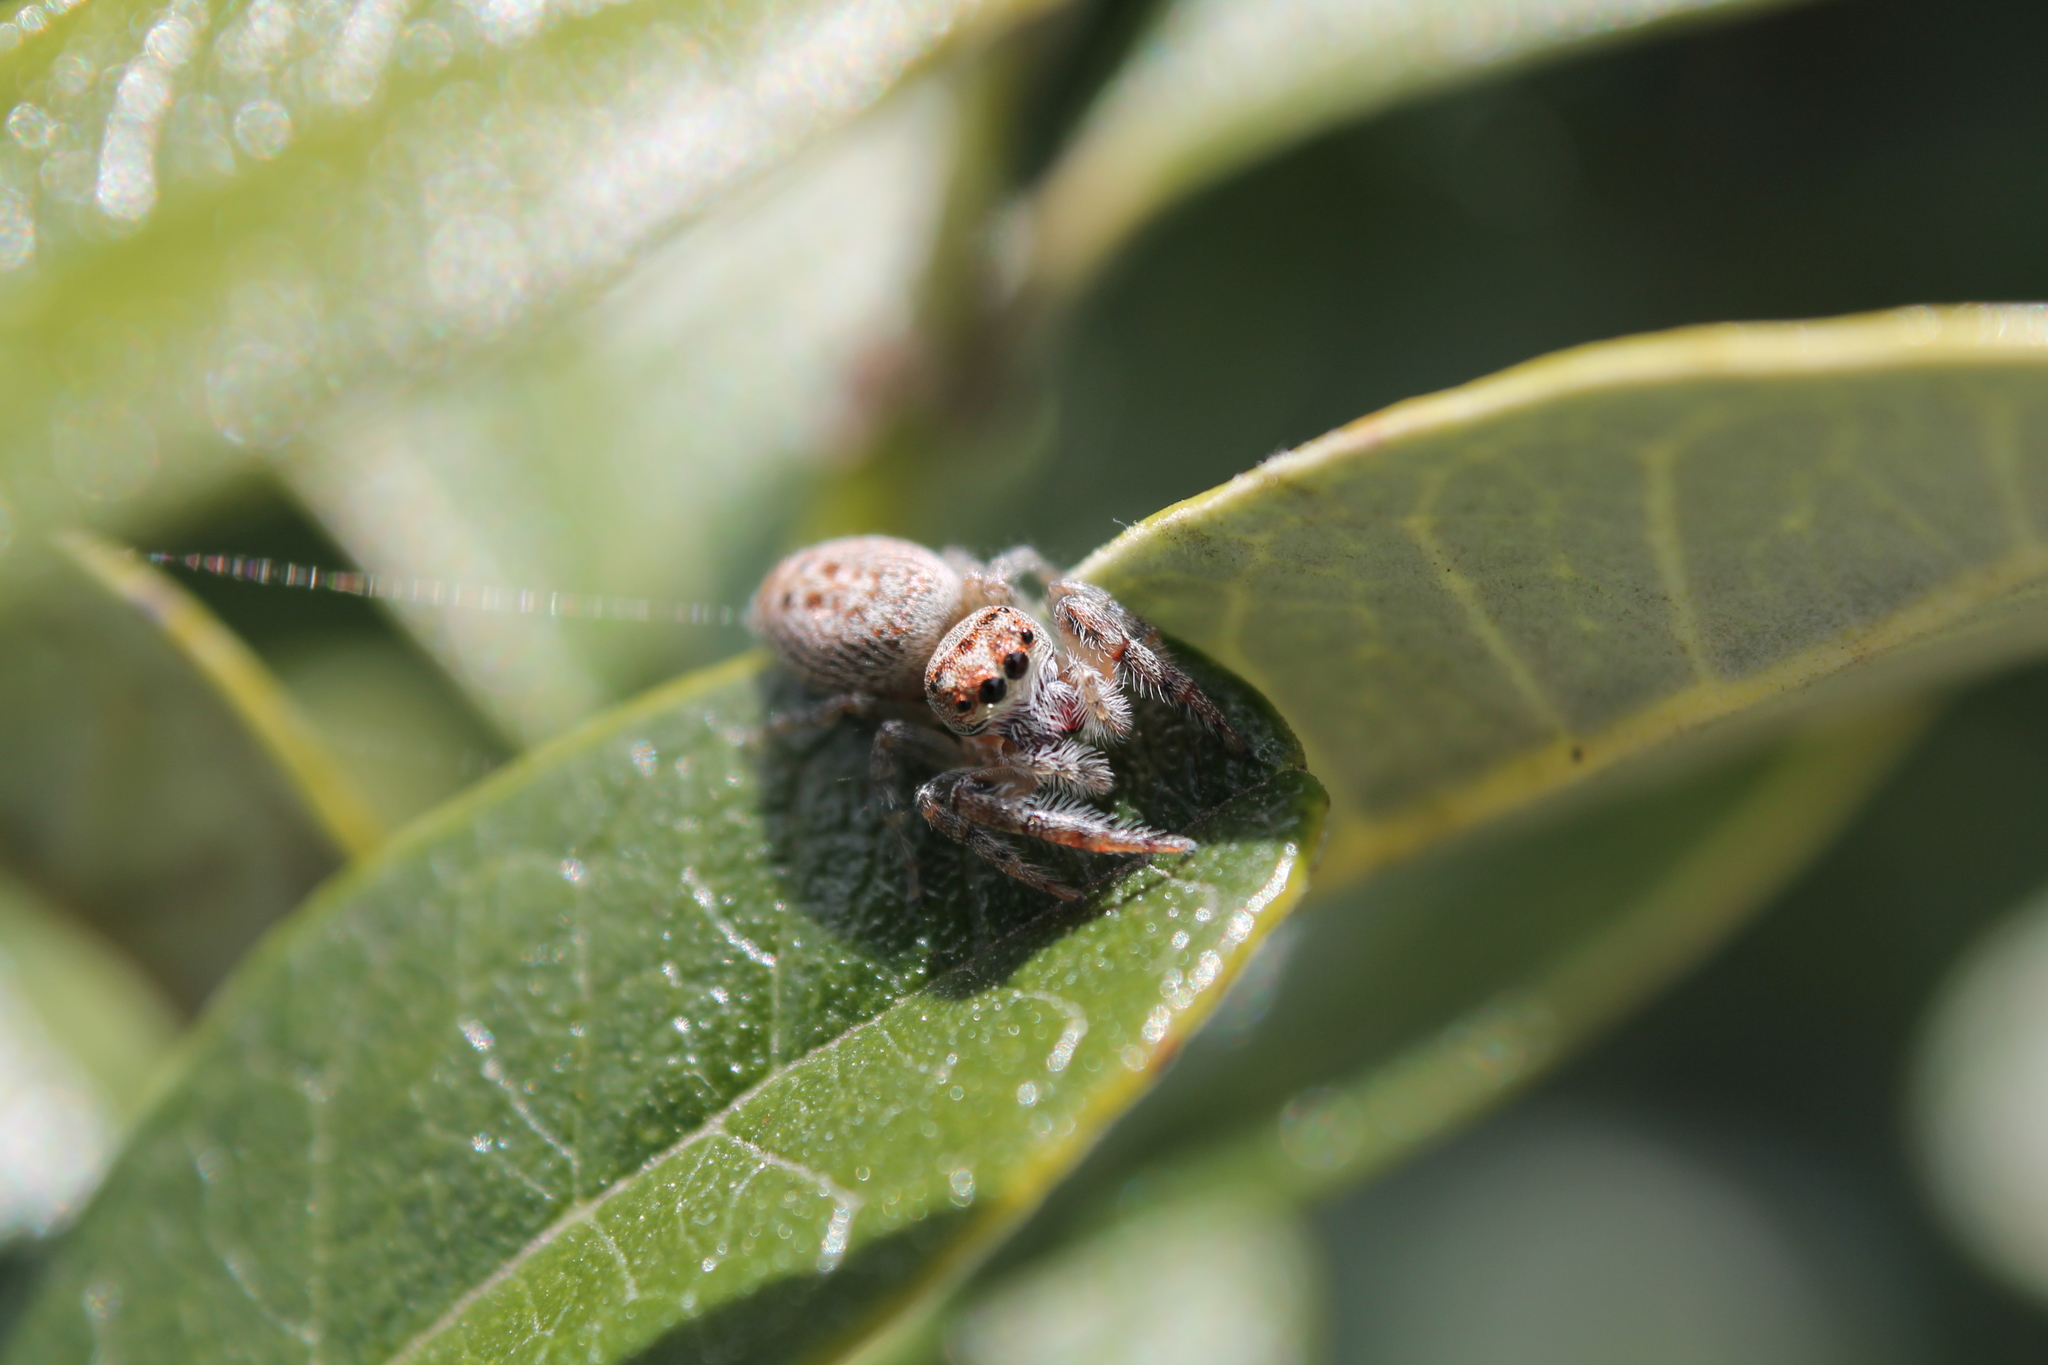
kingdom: Animalia
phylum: Arthropoda
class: Arachnida
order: Araneae
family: Salticidae
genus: Opisthoncus
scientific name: Opisthoncus polyphemus
